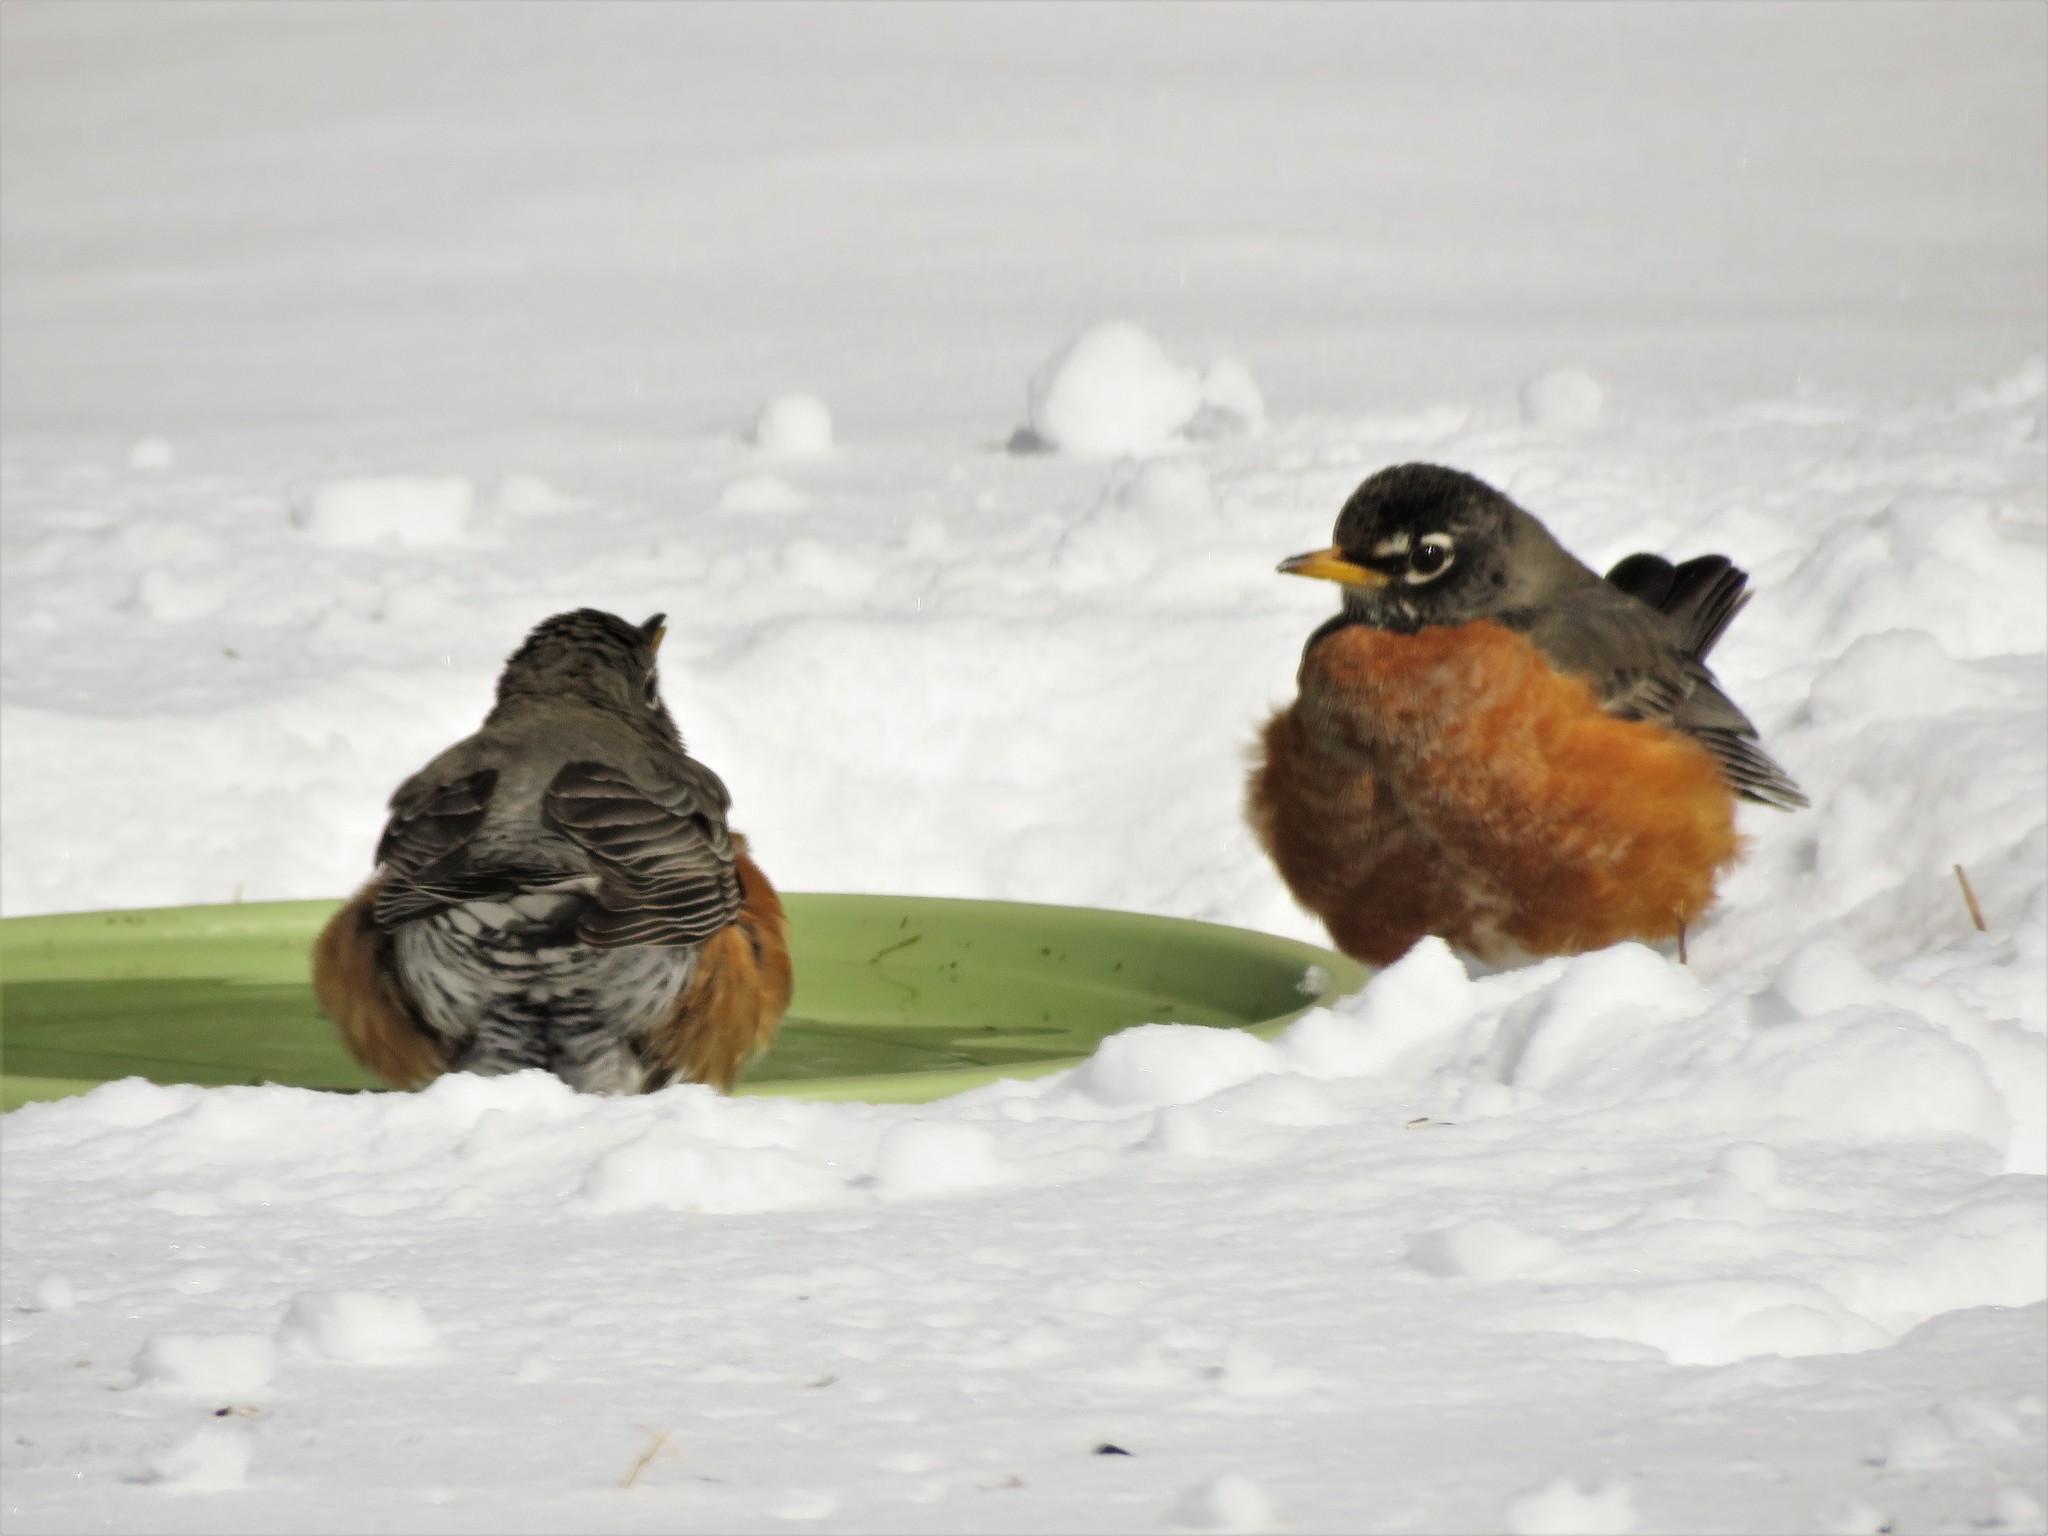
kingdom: Animalia
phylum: Chordata
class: Aves
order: Passeriformes
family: Turdidae
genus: Turdus
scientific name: Turdus migratorius
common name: American robin
